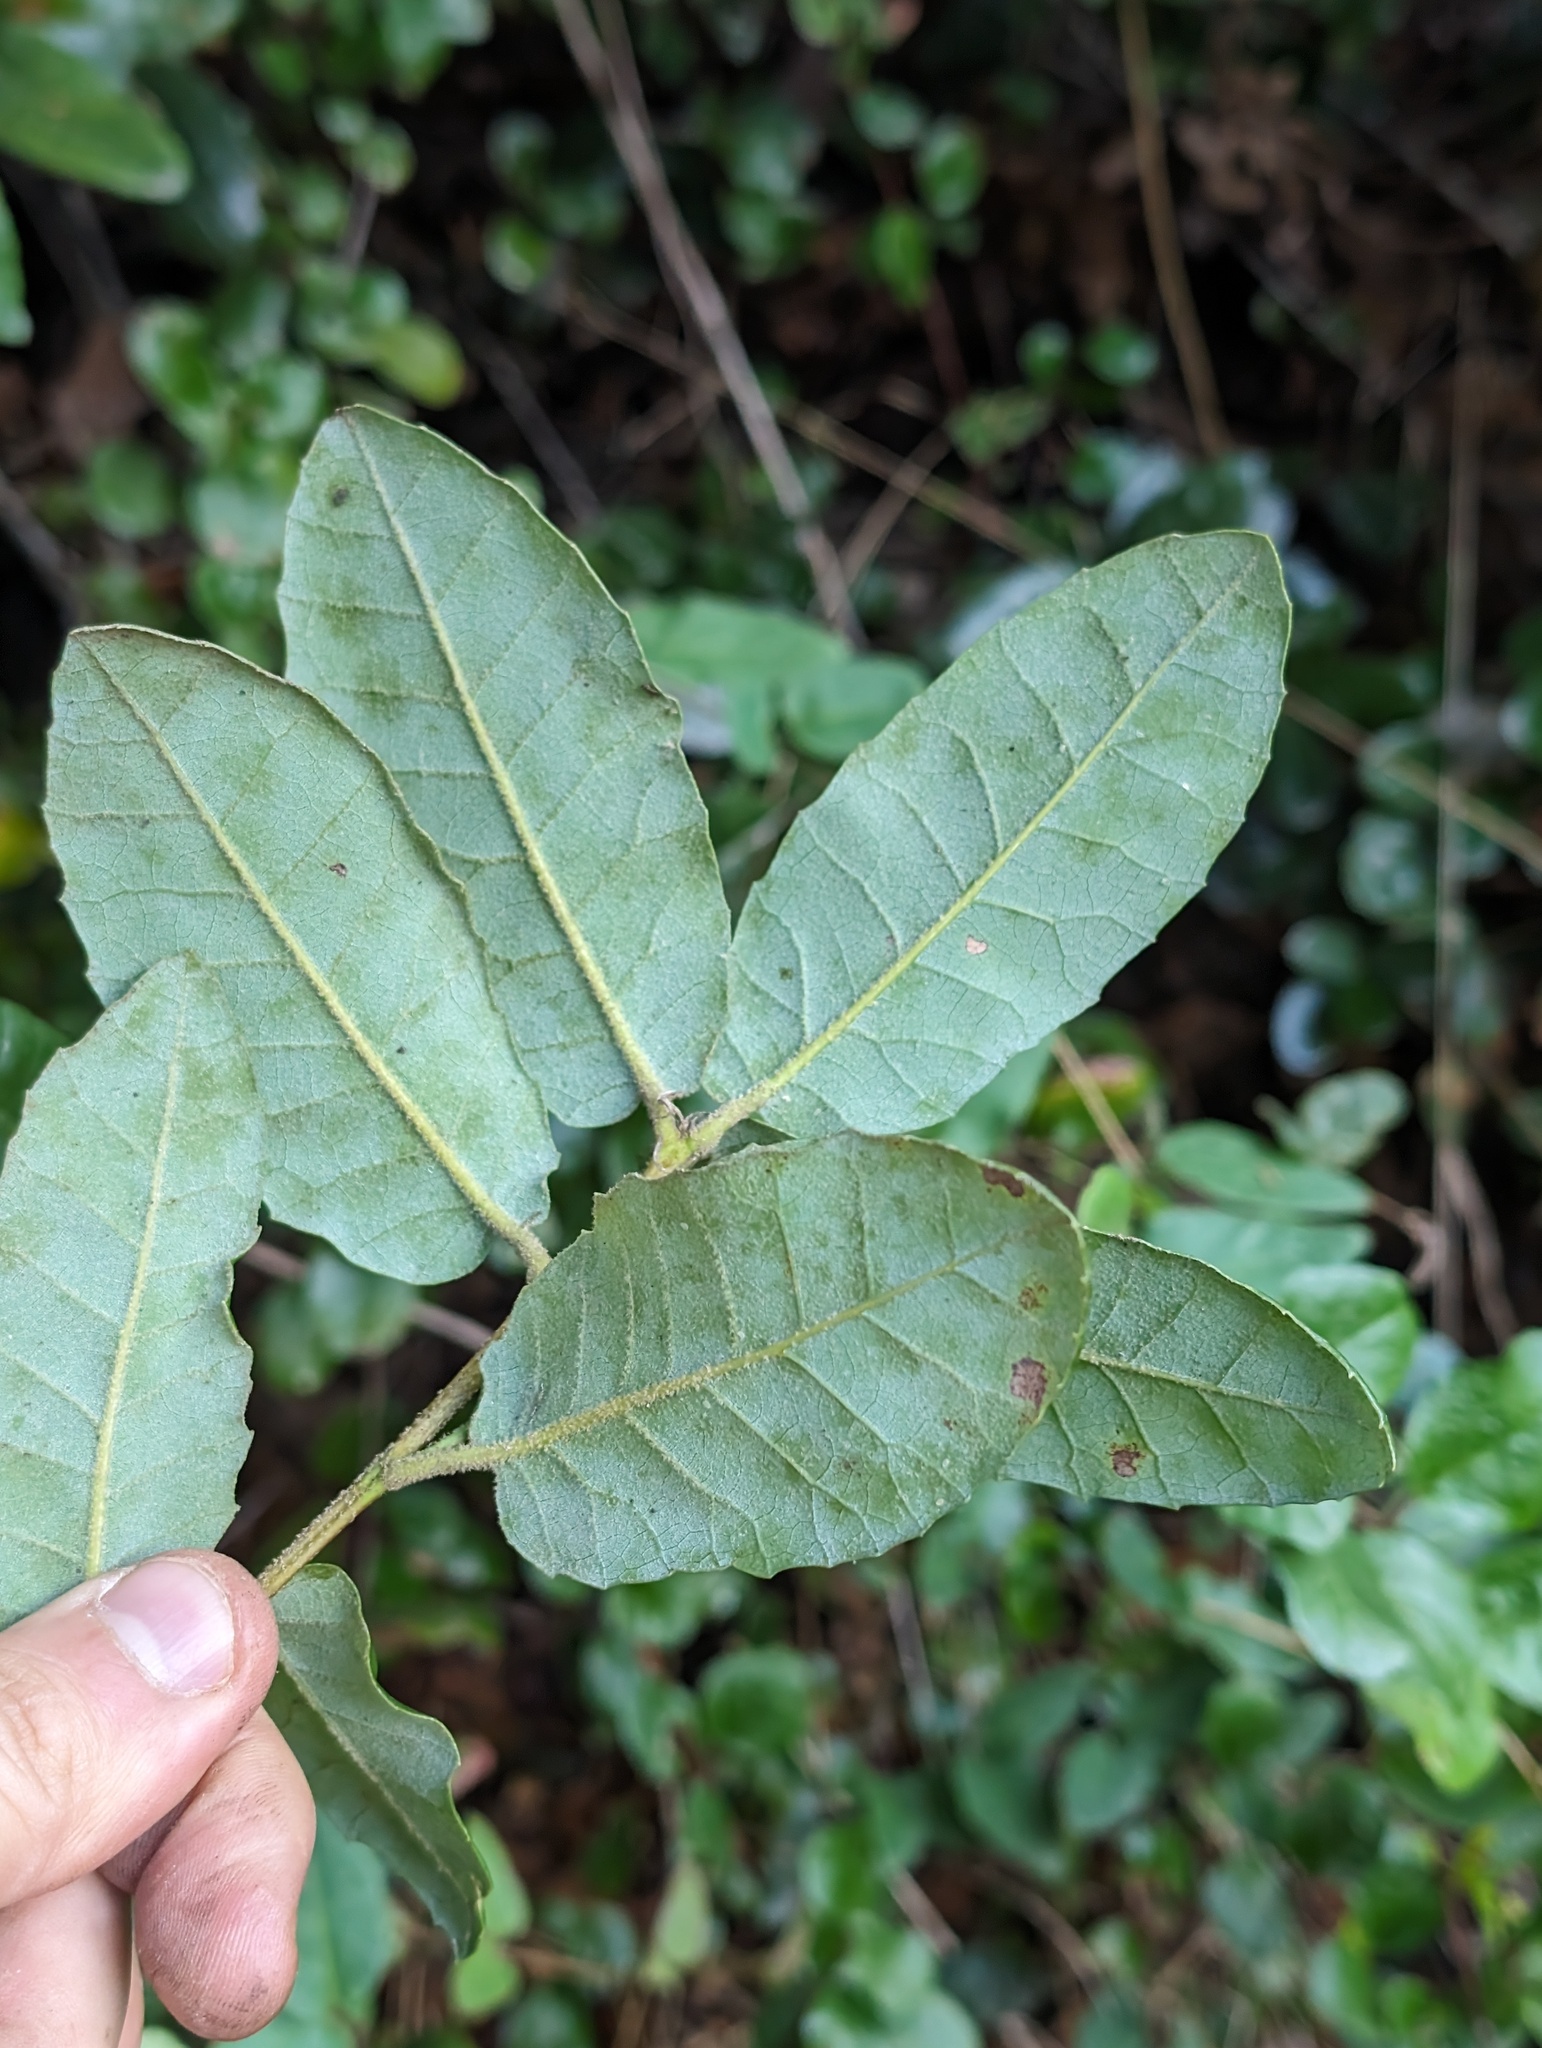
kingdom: Plantae
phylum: Tracheophyta
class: Magnoliopsida
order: Fagales
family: Fagaceae
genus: Quercus
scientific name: Quercus tomentella
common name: Island oak
